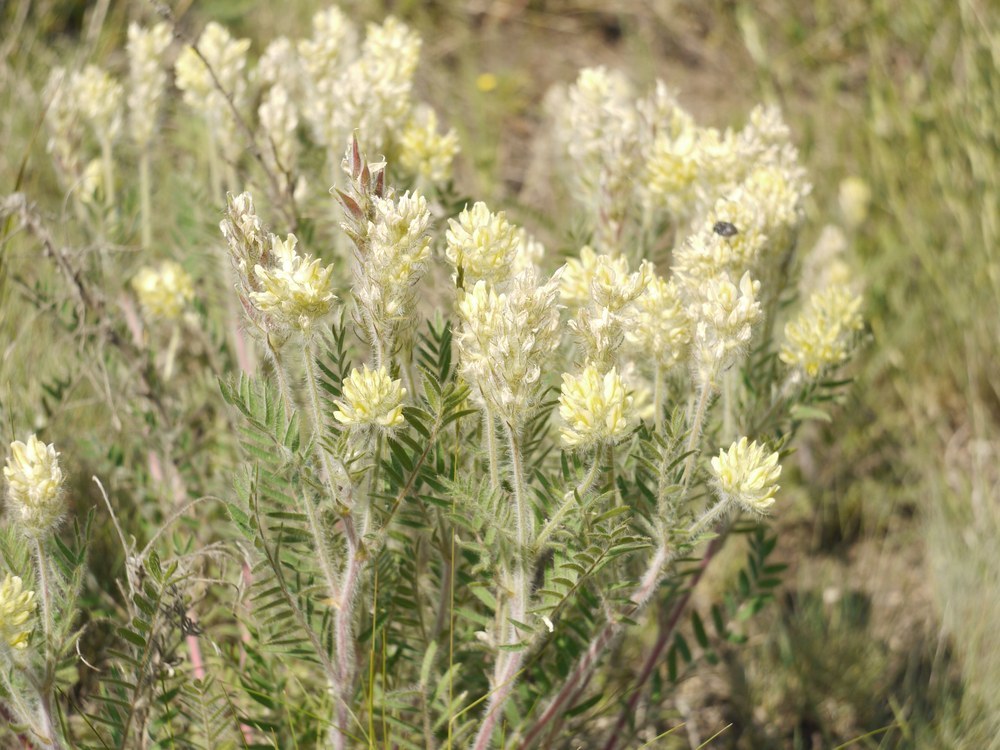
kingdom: Plantae
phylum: Tracheophyta
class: Magnoliopsida
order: Fabales
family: Fabaceae
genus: Oxytropis
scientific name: Oxytropis pilosa
